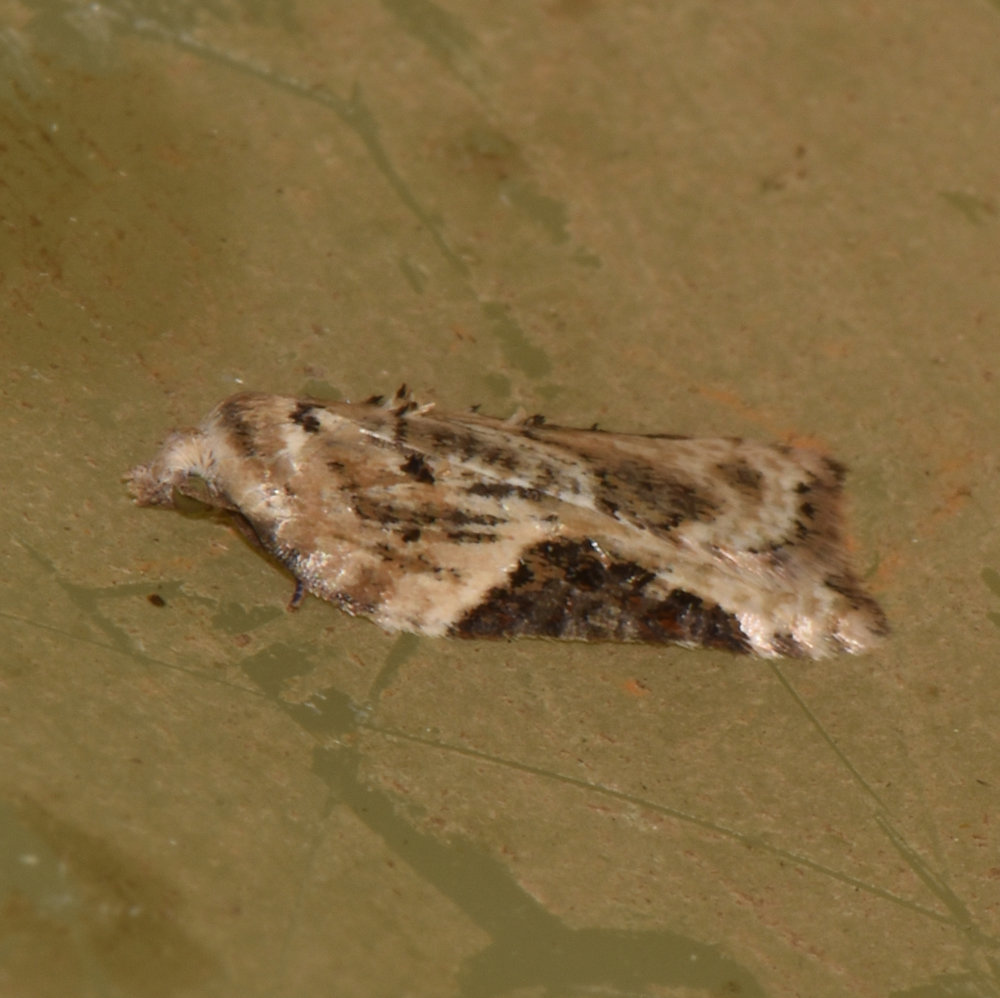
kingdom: Animalia
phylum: Arthropoda
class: Insecta
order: Lepidoptera
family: Tortricidae
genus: Acleris
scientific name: Acleris forbesana
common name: Forbes' acleris moth
